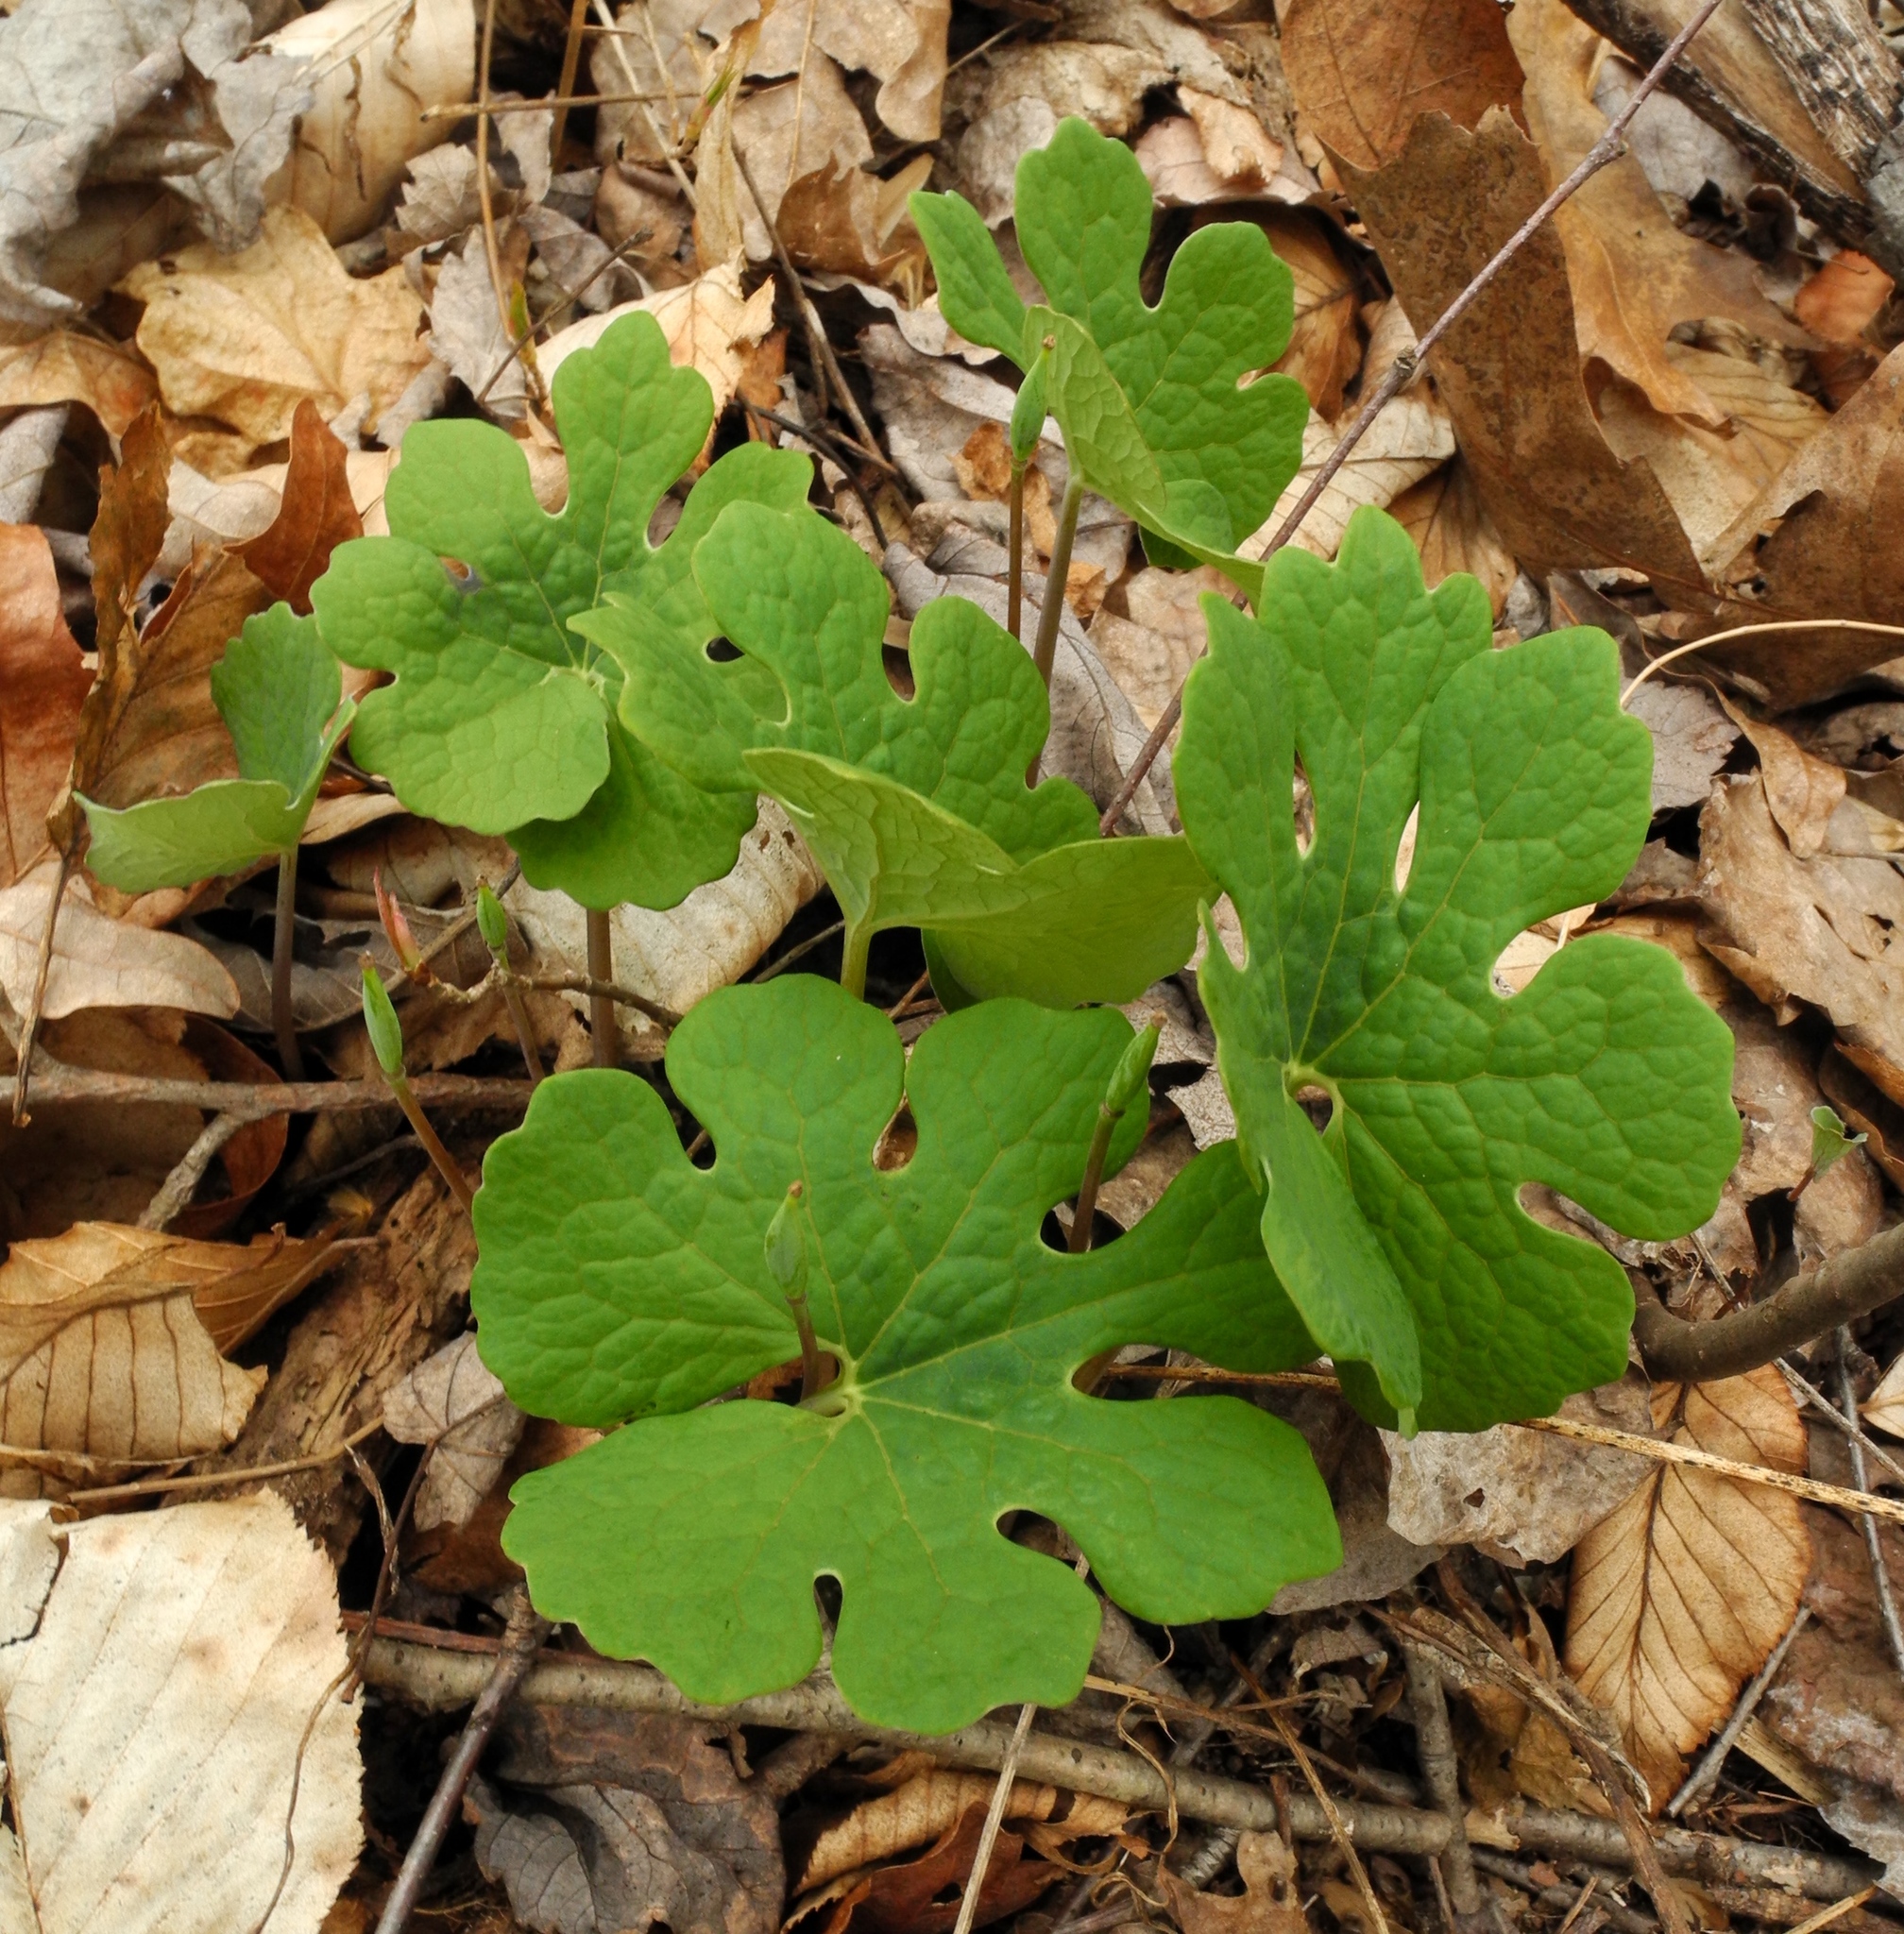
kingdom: Plantae
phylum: Tracheophyta
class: Magnoliopsida
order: Ranunculales
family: Papaveraceae
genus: Sanguinaria
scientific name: Sanguinaria canadensis
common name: Bloodroot
